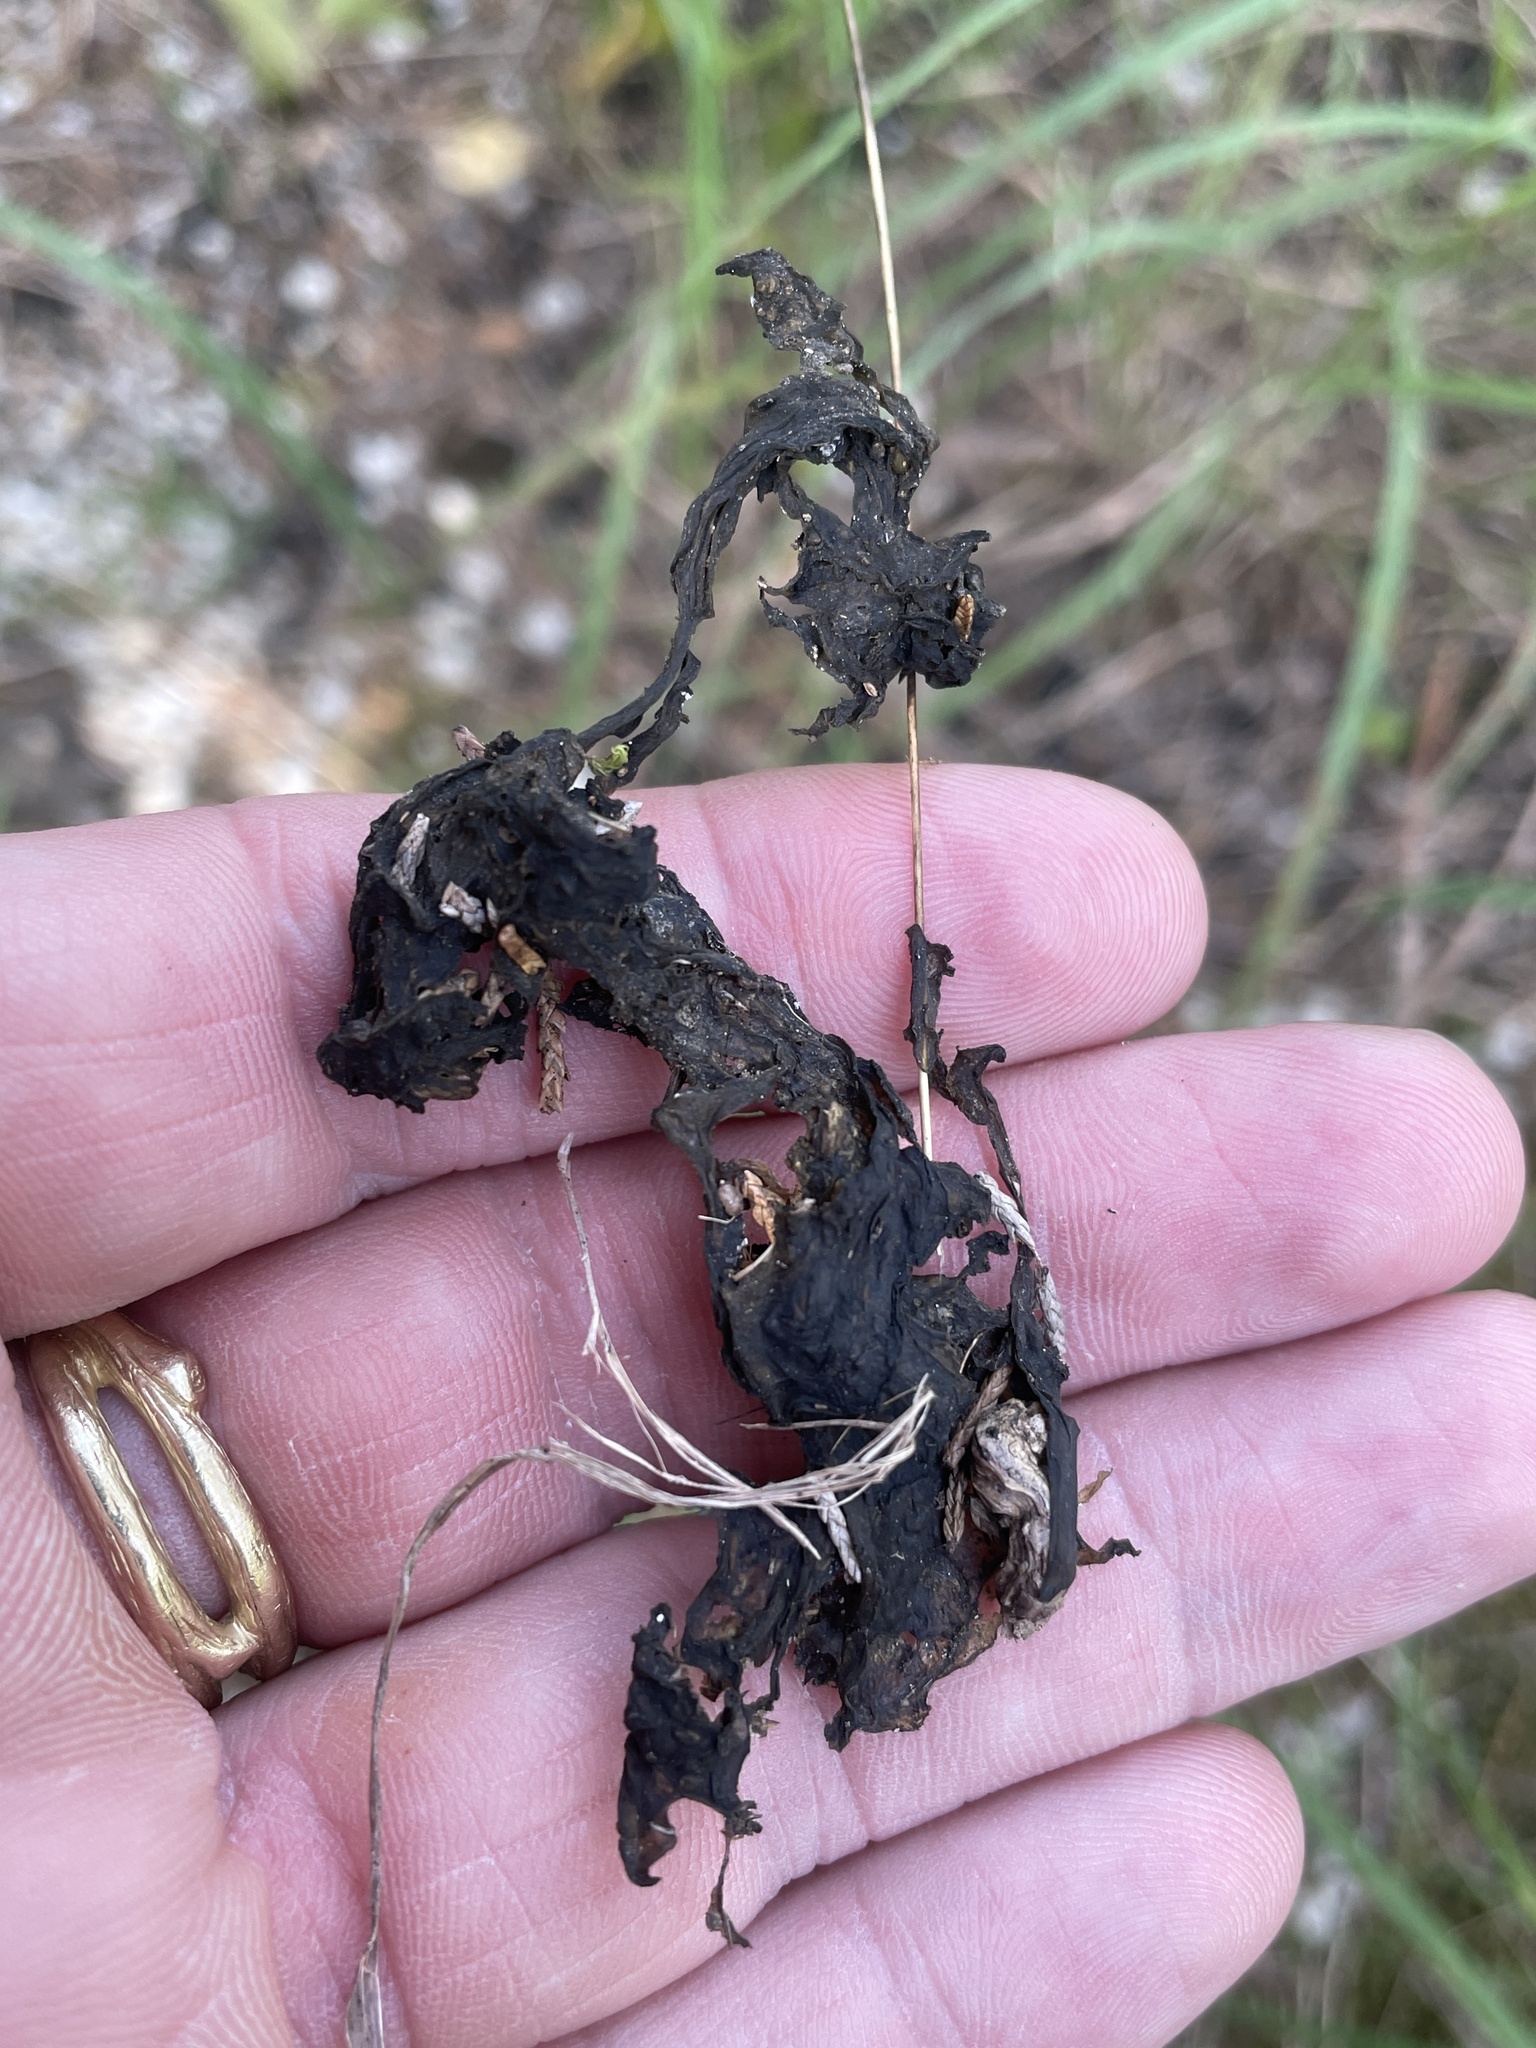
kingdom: Bacteria
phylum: Cyanobacteria
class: Cyanobacteriia
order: Cyanobacteriales
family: Nostocaceae
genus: Nostoc
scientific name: Nostoc commune
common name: Star jelly
